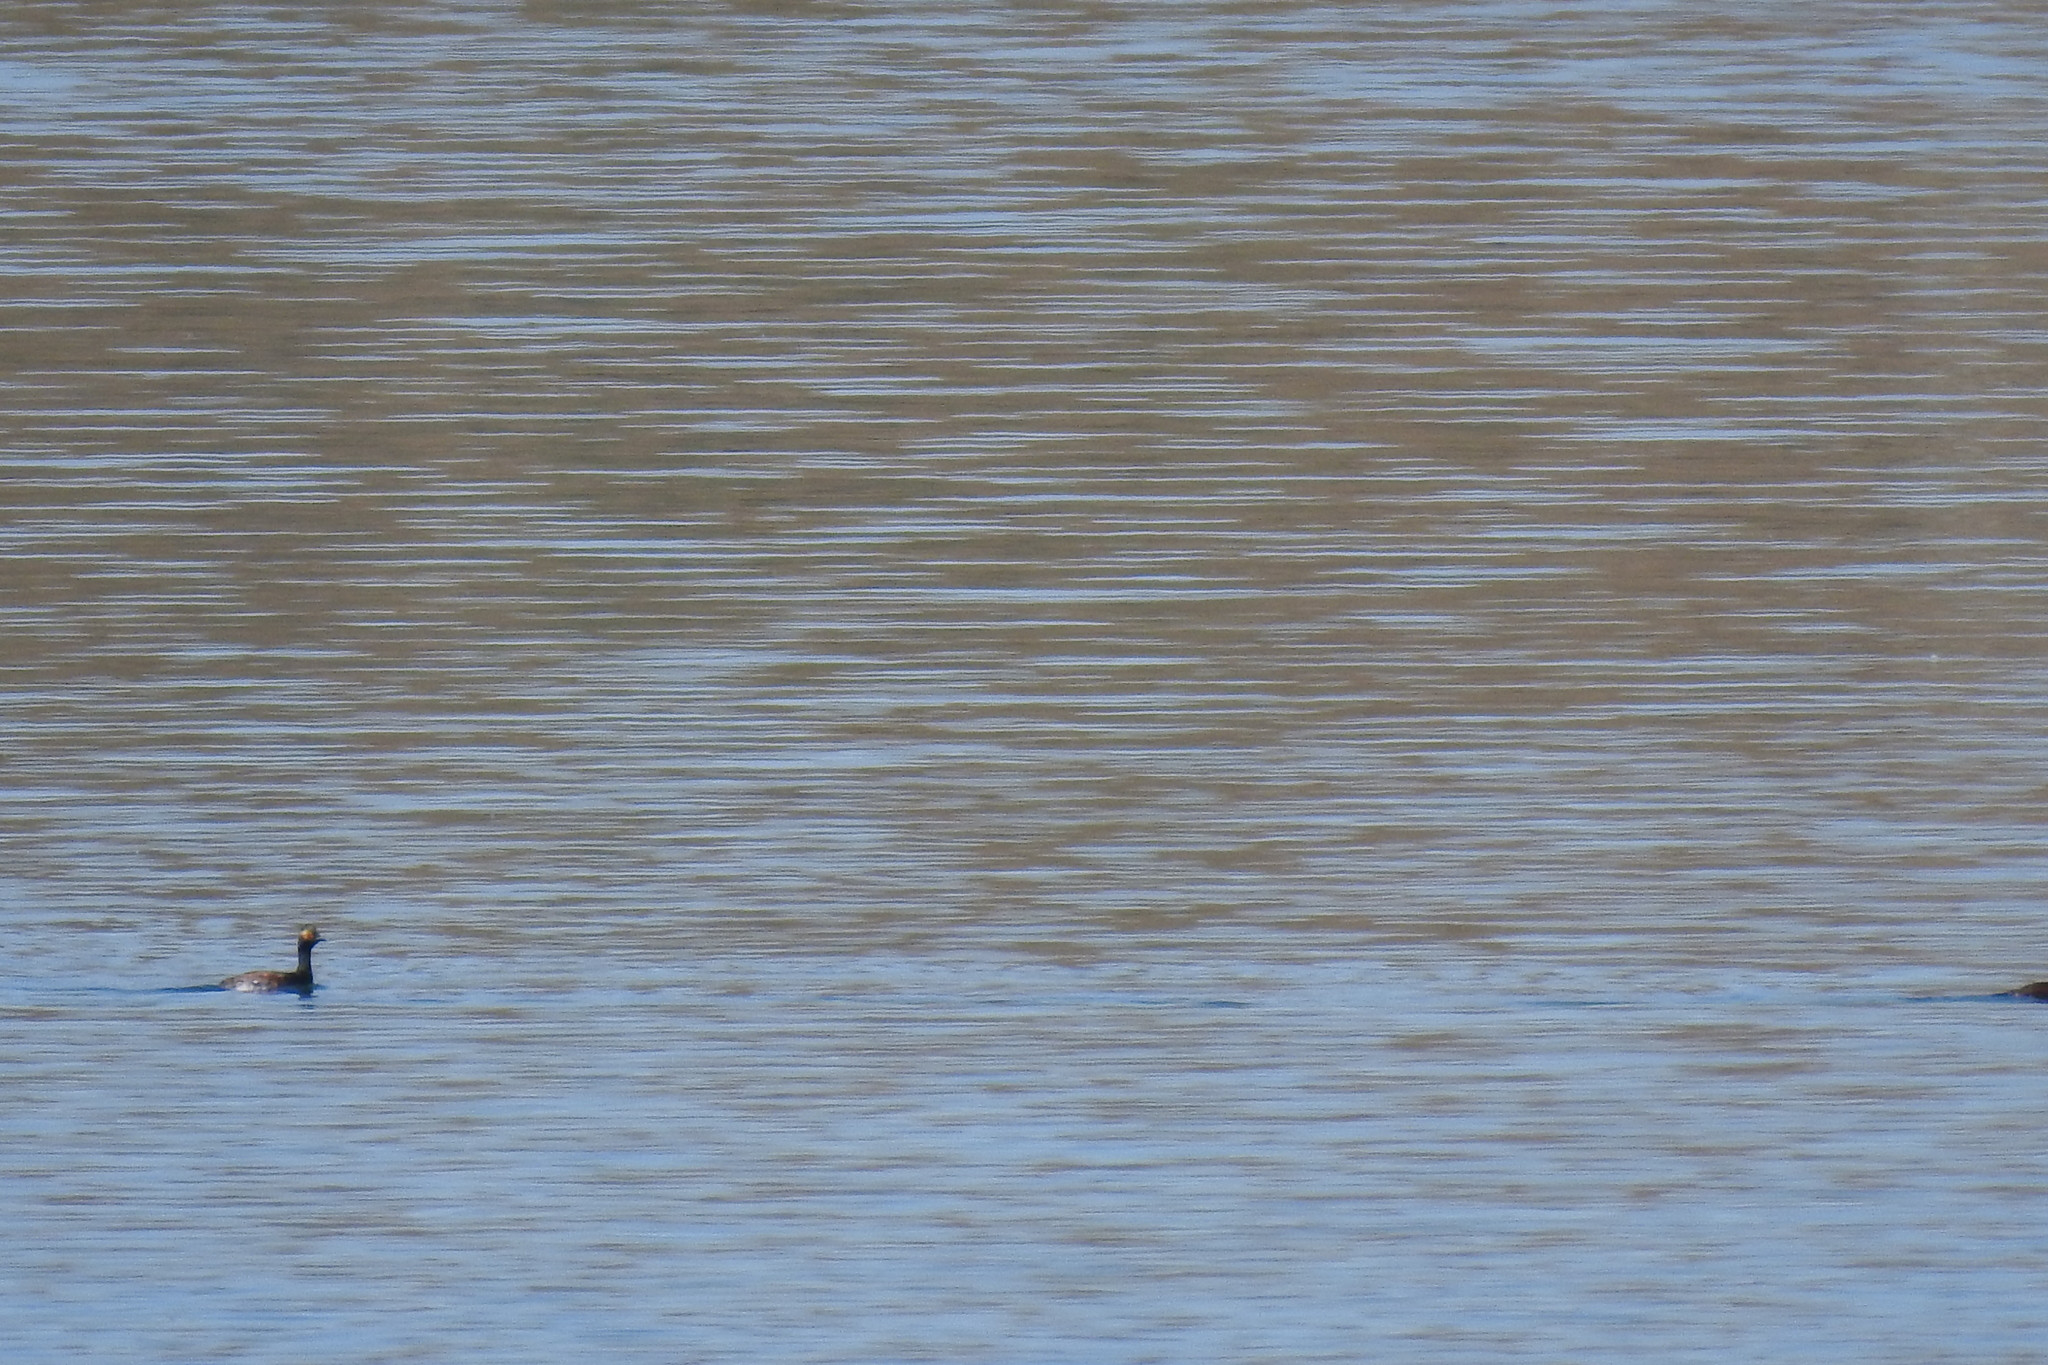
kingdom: Animalia
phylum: Chordata
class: Aves
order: Podicipediformes
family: Podicipedidae
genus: Podiceps
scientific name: Podiceps nigricollis
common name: Black-necked grebe
